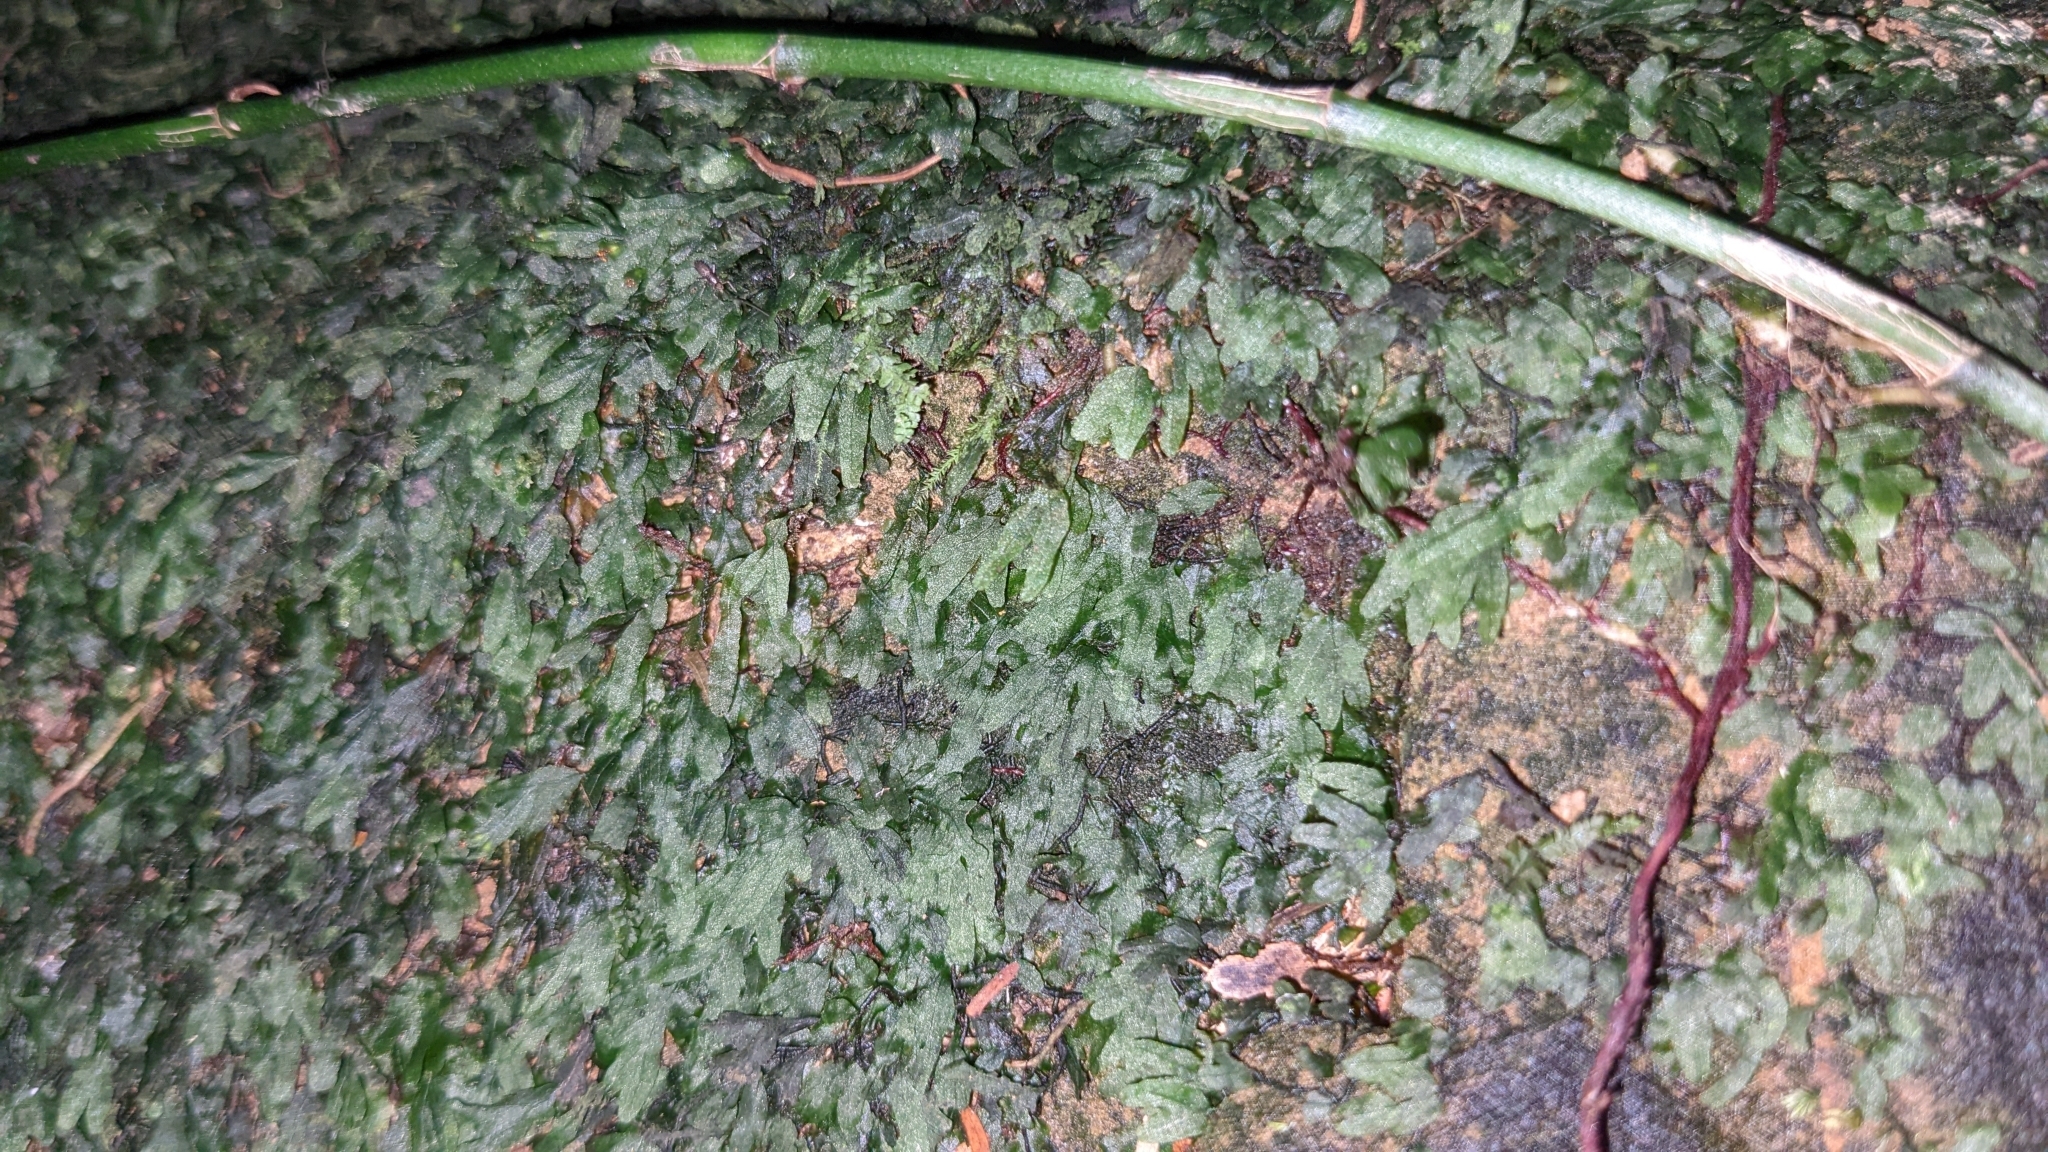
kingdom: Plantae
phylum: Tracheophyta
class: Polypodiopsida
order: Hymenophyllales
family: Hymenophyllaceae
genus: Crepidomanes
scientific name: Crepidomanes parvifolium
